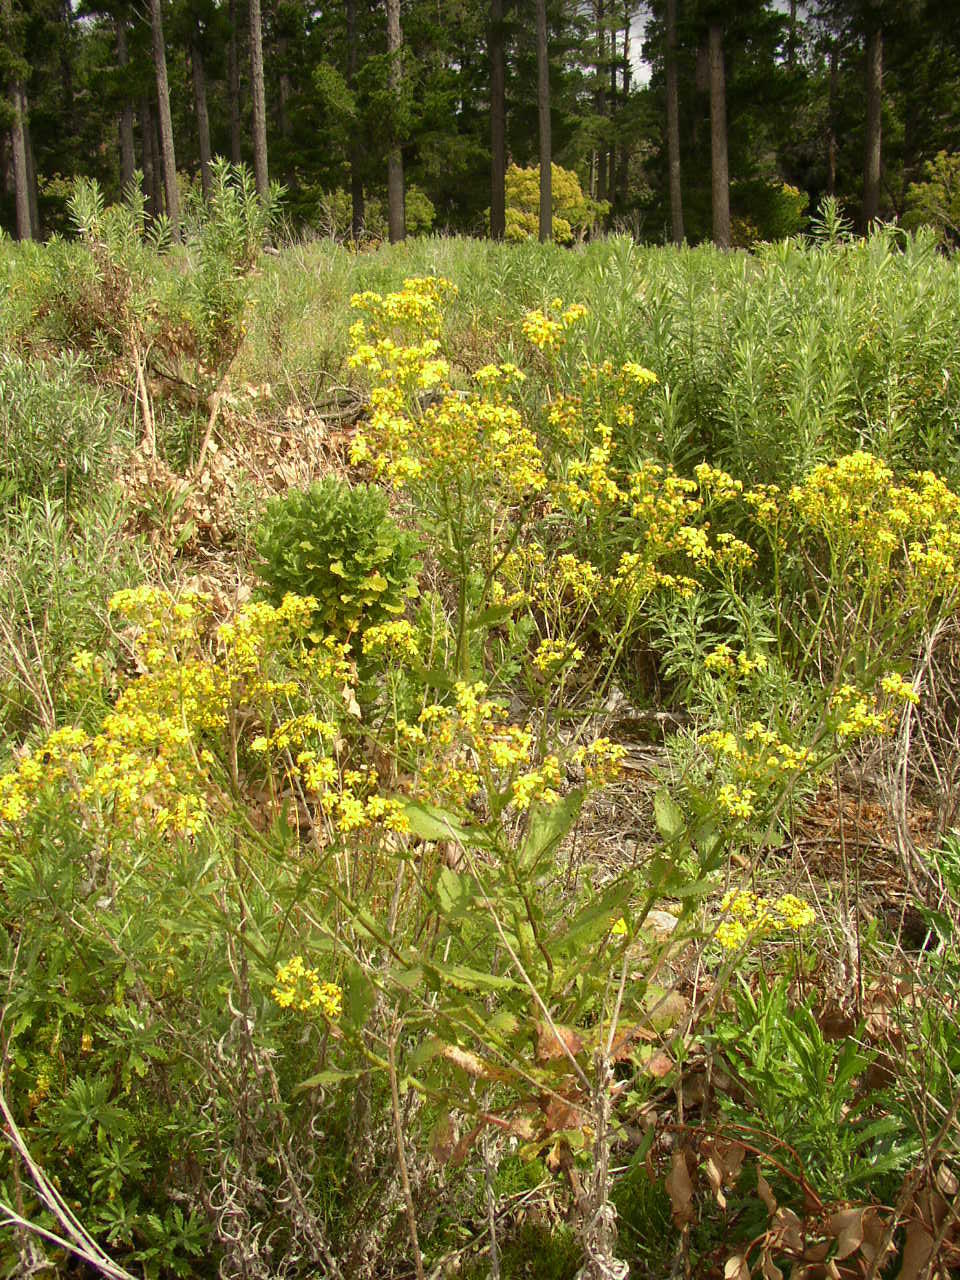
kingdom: Plantae
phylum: Tracheophyta
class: Magnoliopsida
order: Asterales
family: Asteraceae
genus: Senecio
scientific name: Senecio burchellii
